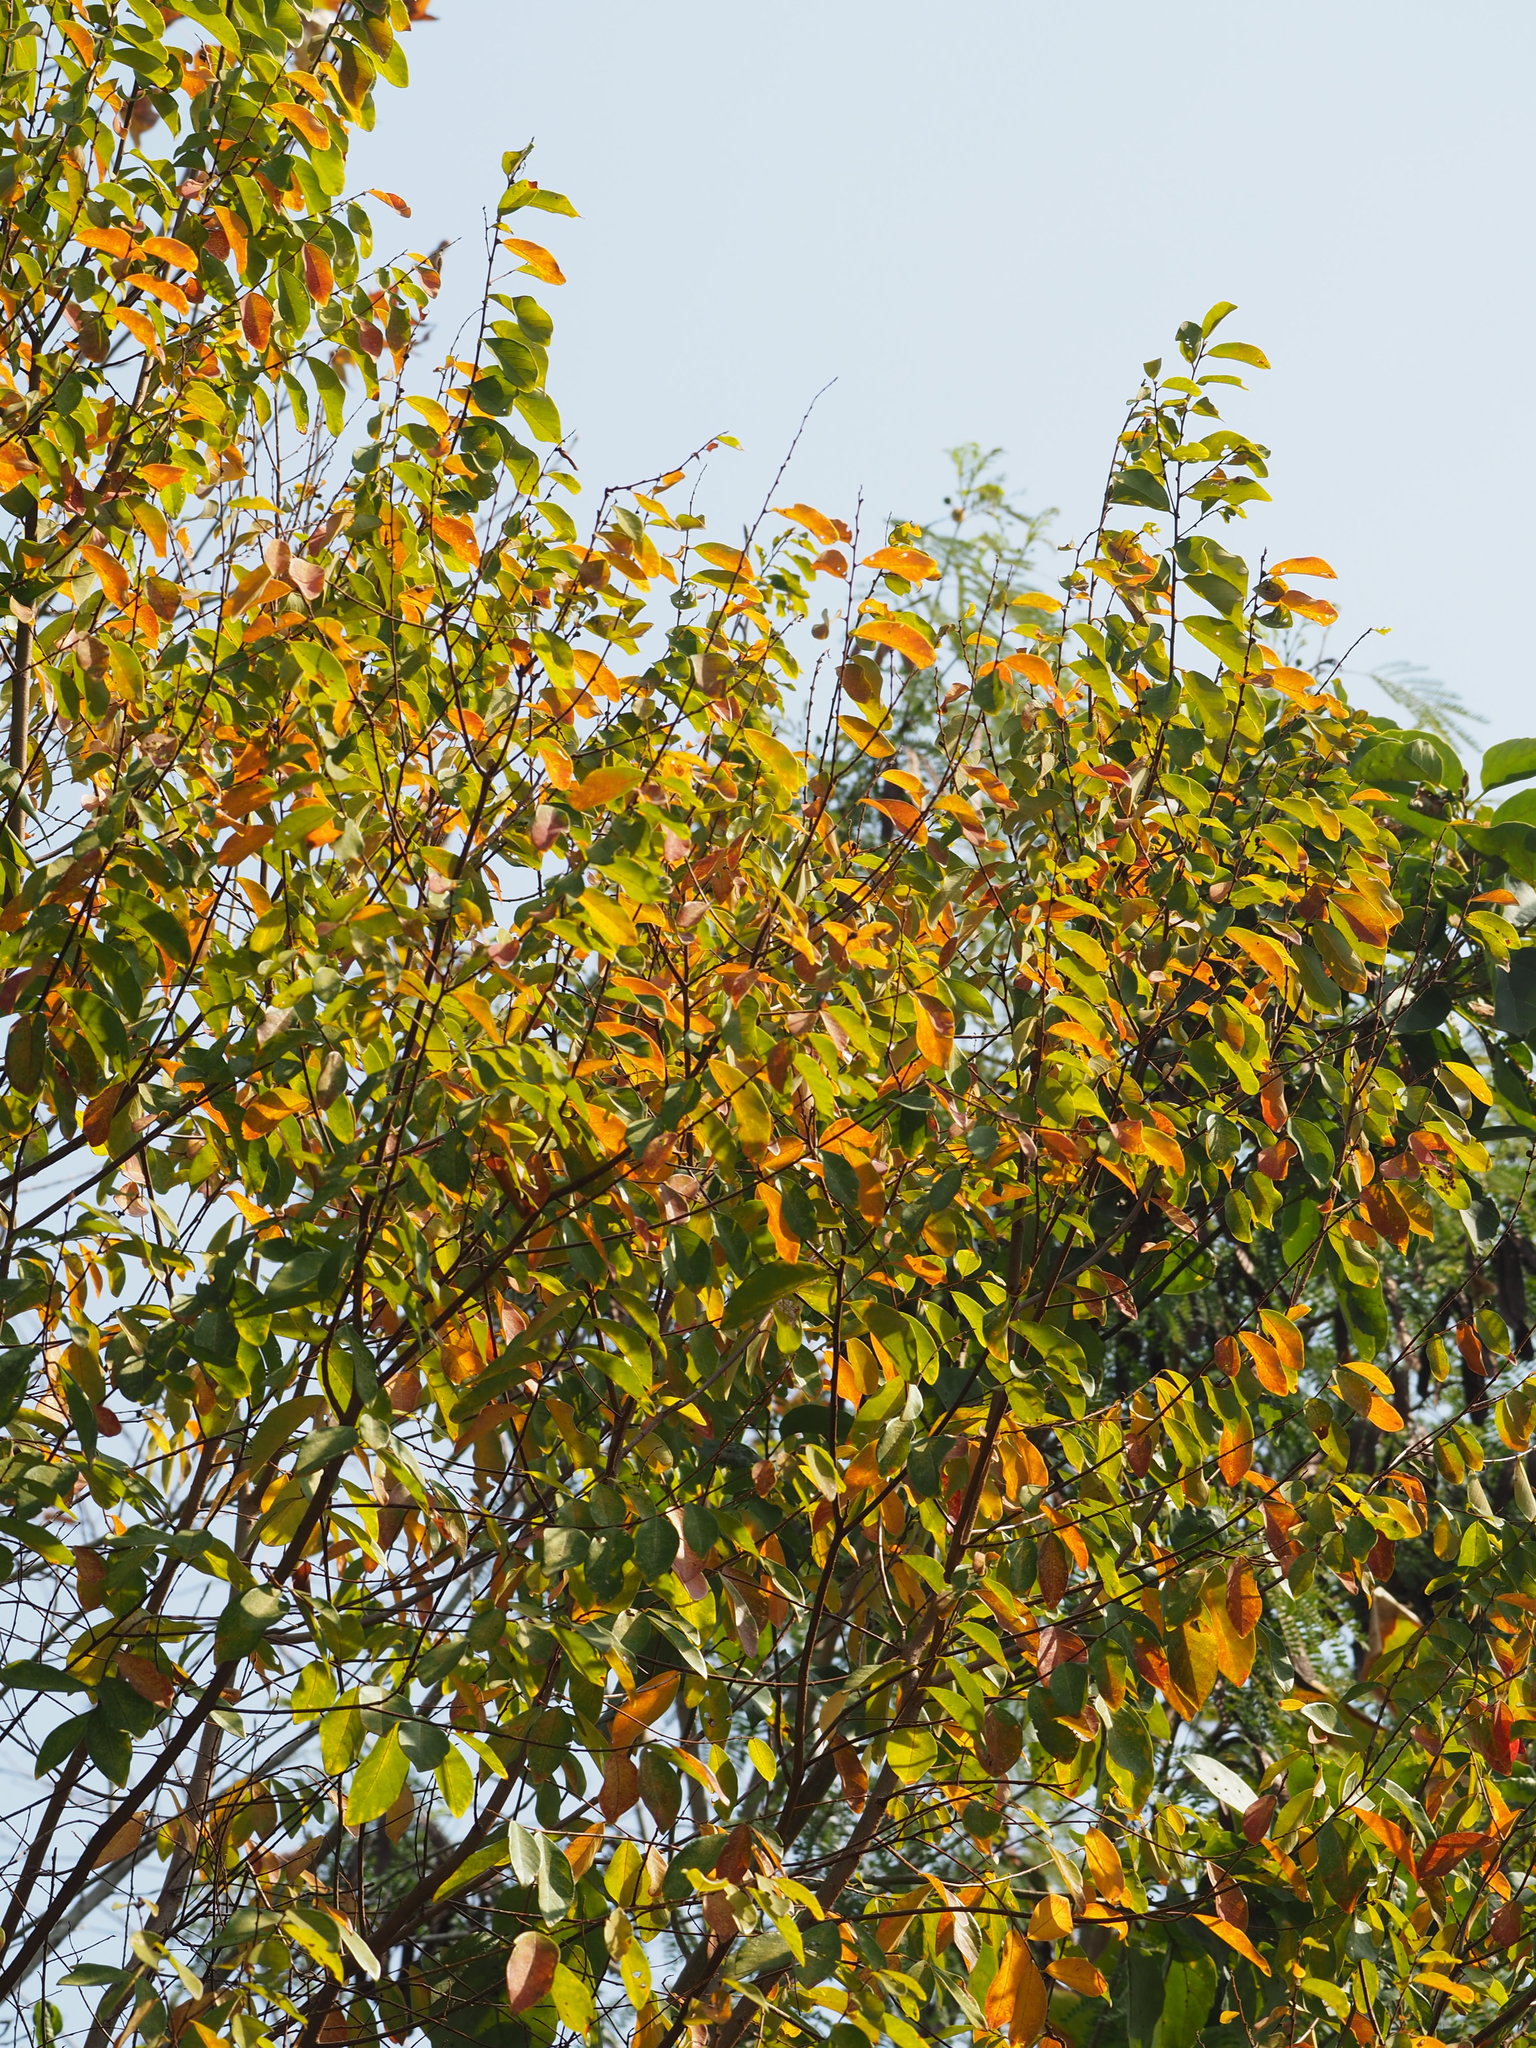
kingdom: Plantae
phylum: Tracheophyta
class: Magnoliopsida
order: Malpighiales
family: Phyllanthaceae
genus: Bridelia
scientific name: Bridelia tomentosa
